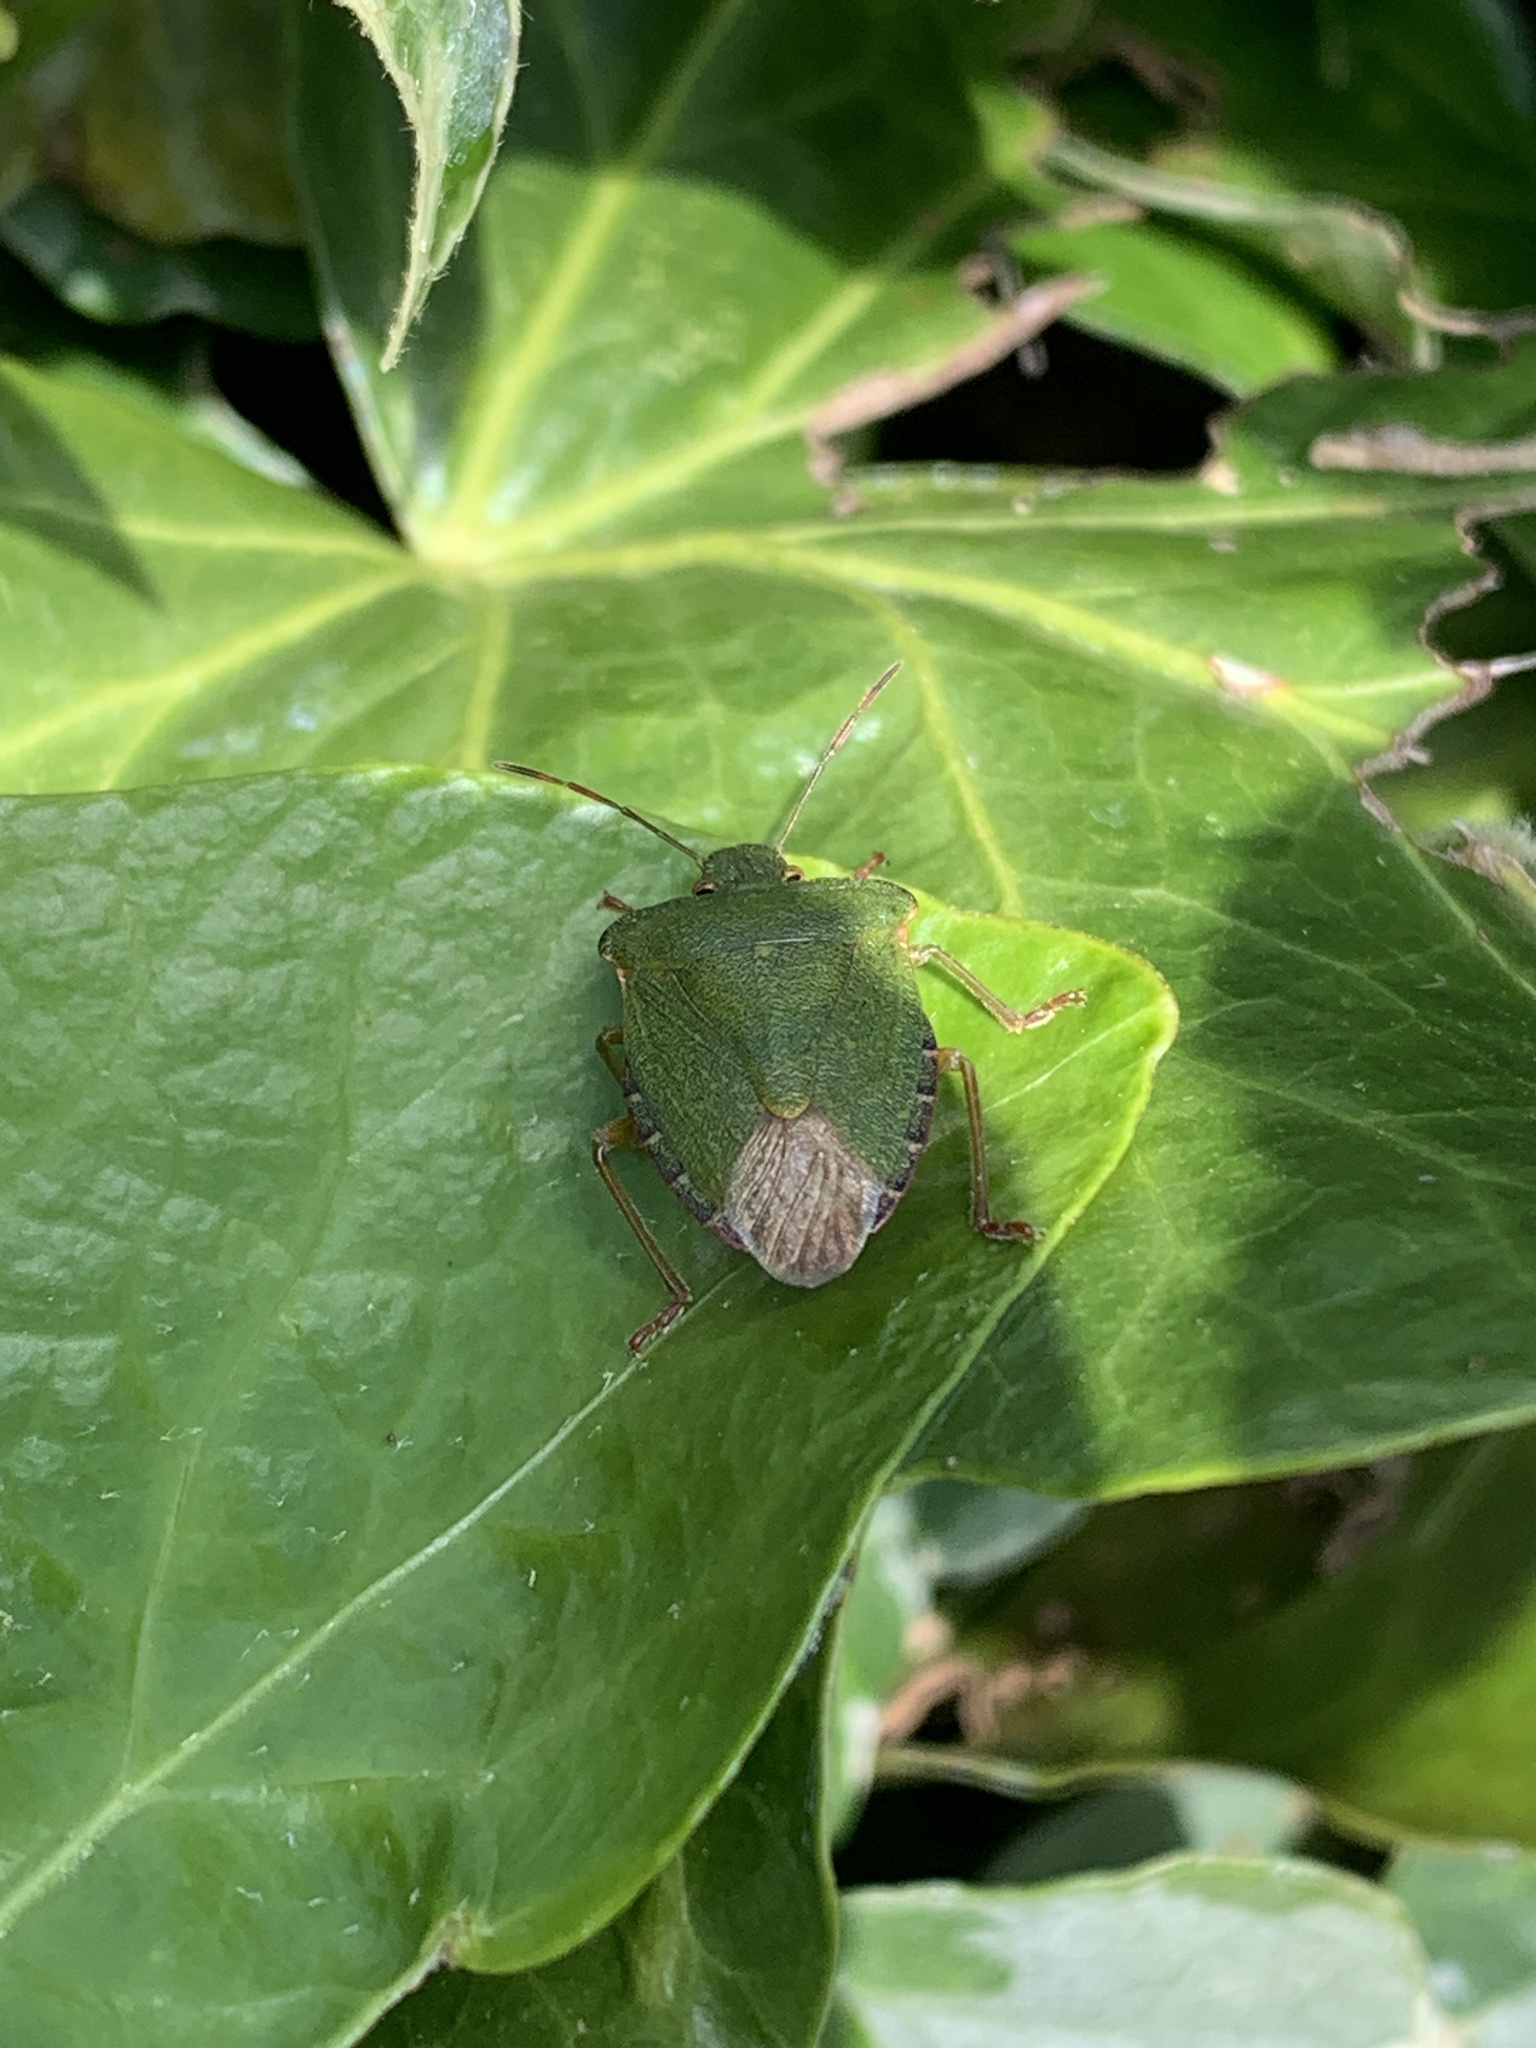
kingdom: Animalia
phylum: Arthropoda
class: Insecta
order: Hemiptera
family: Pentatomidae
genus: Palomena
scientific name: Palomena prasina
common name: Green shieldbug
